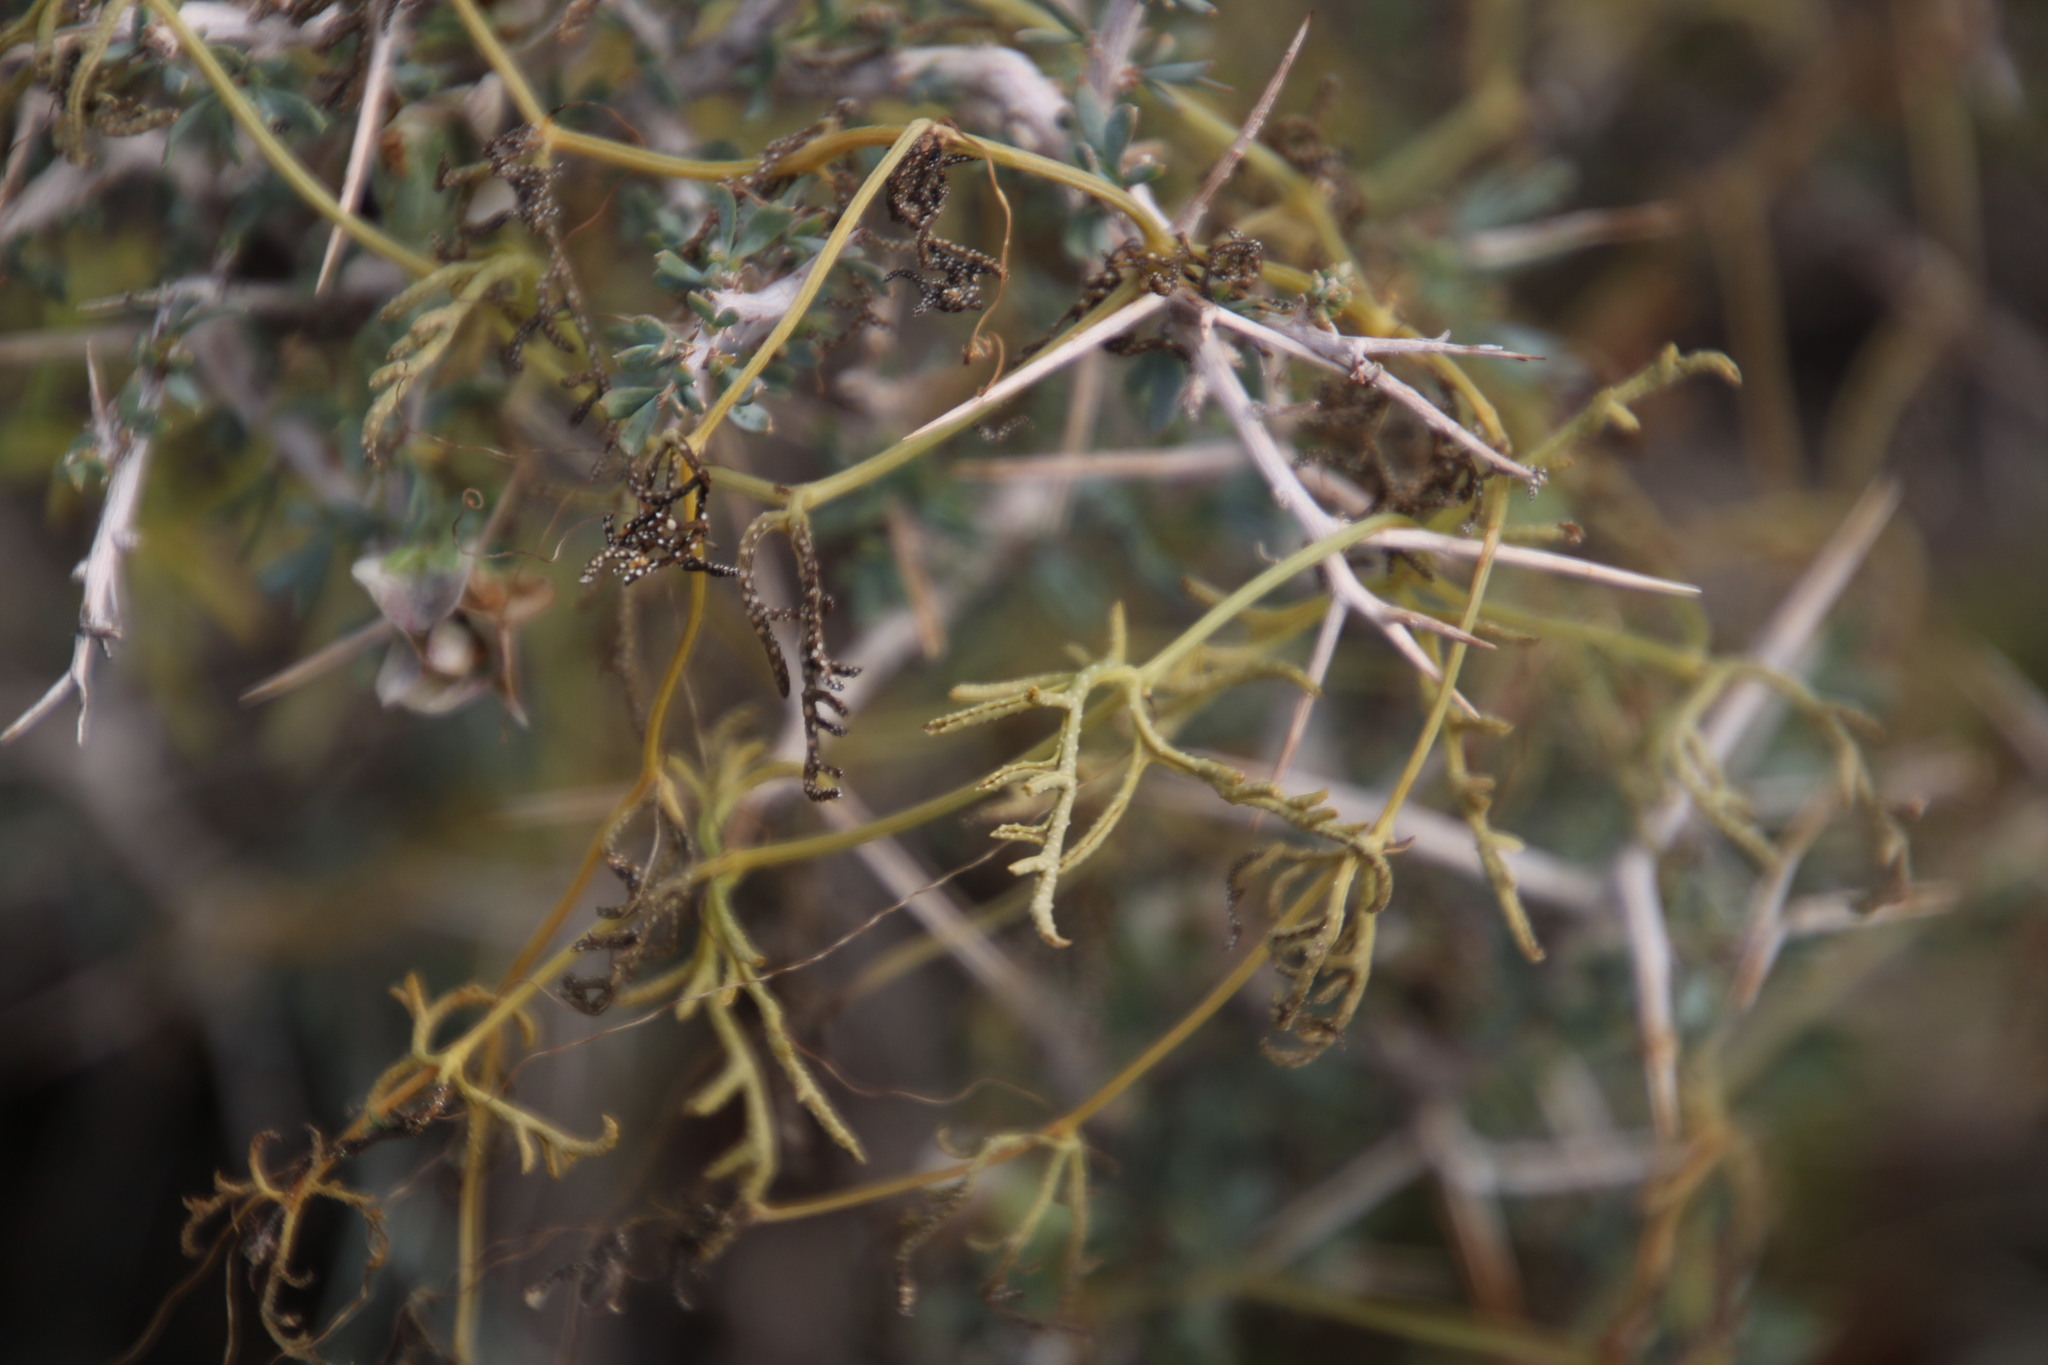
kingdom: Plantae
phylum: Tracheophyta
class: Magnoliopsida
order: Cucurbitales
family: Cucurbitaceae
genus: Kedrostis
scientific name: Kedrostis africana
